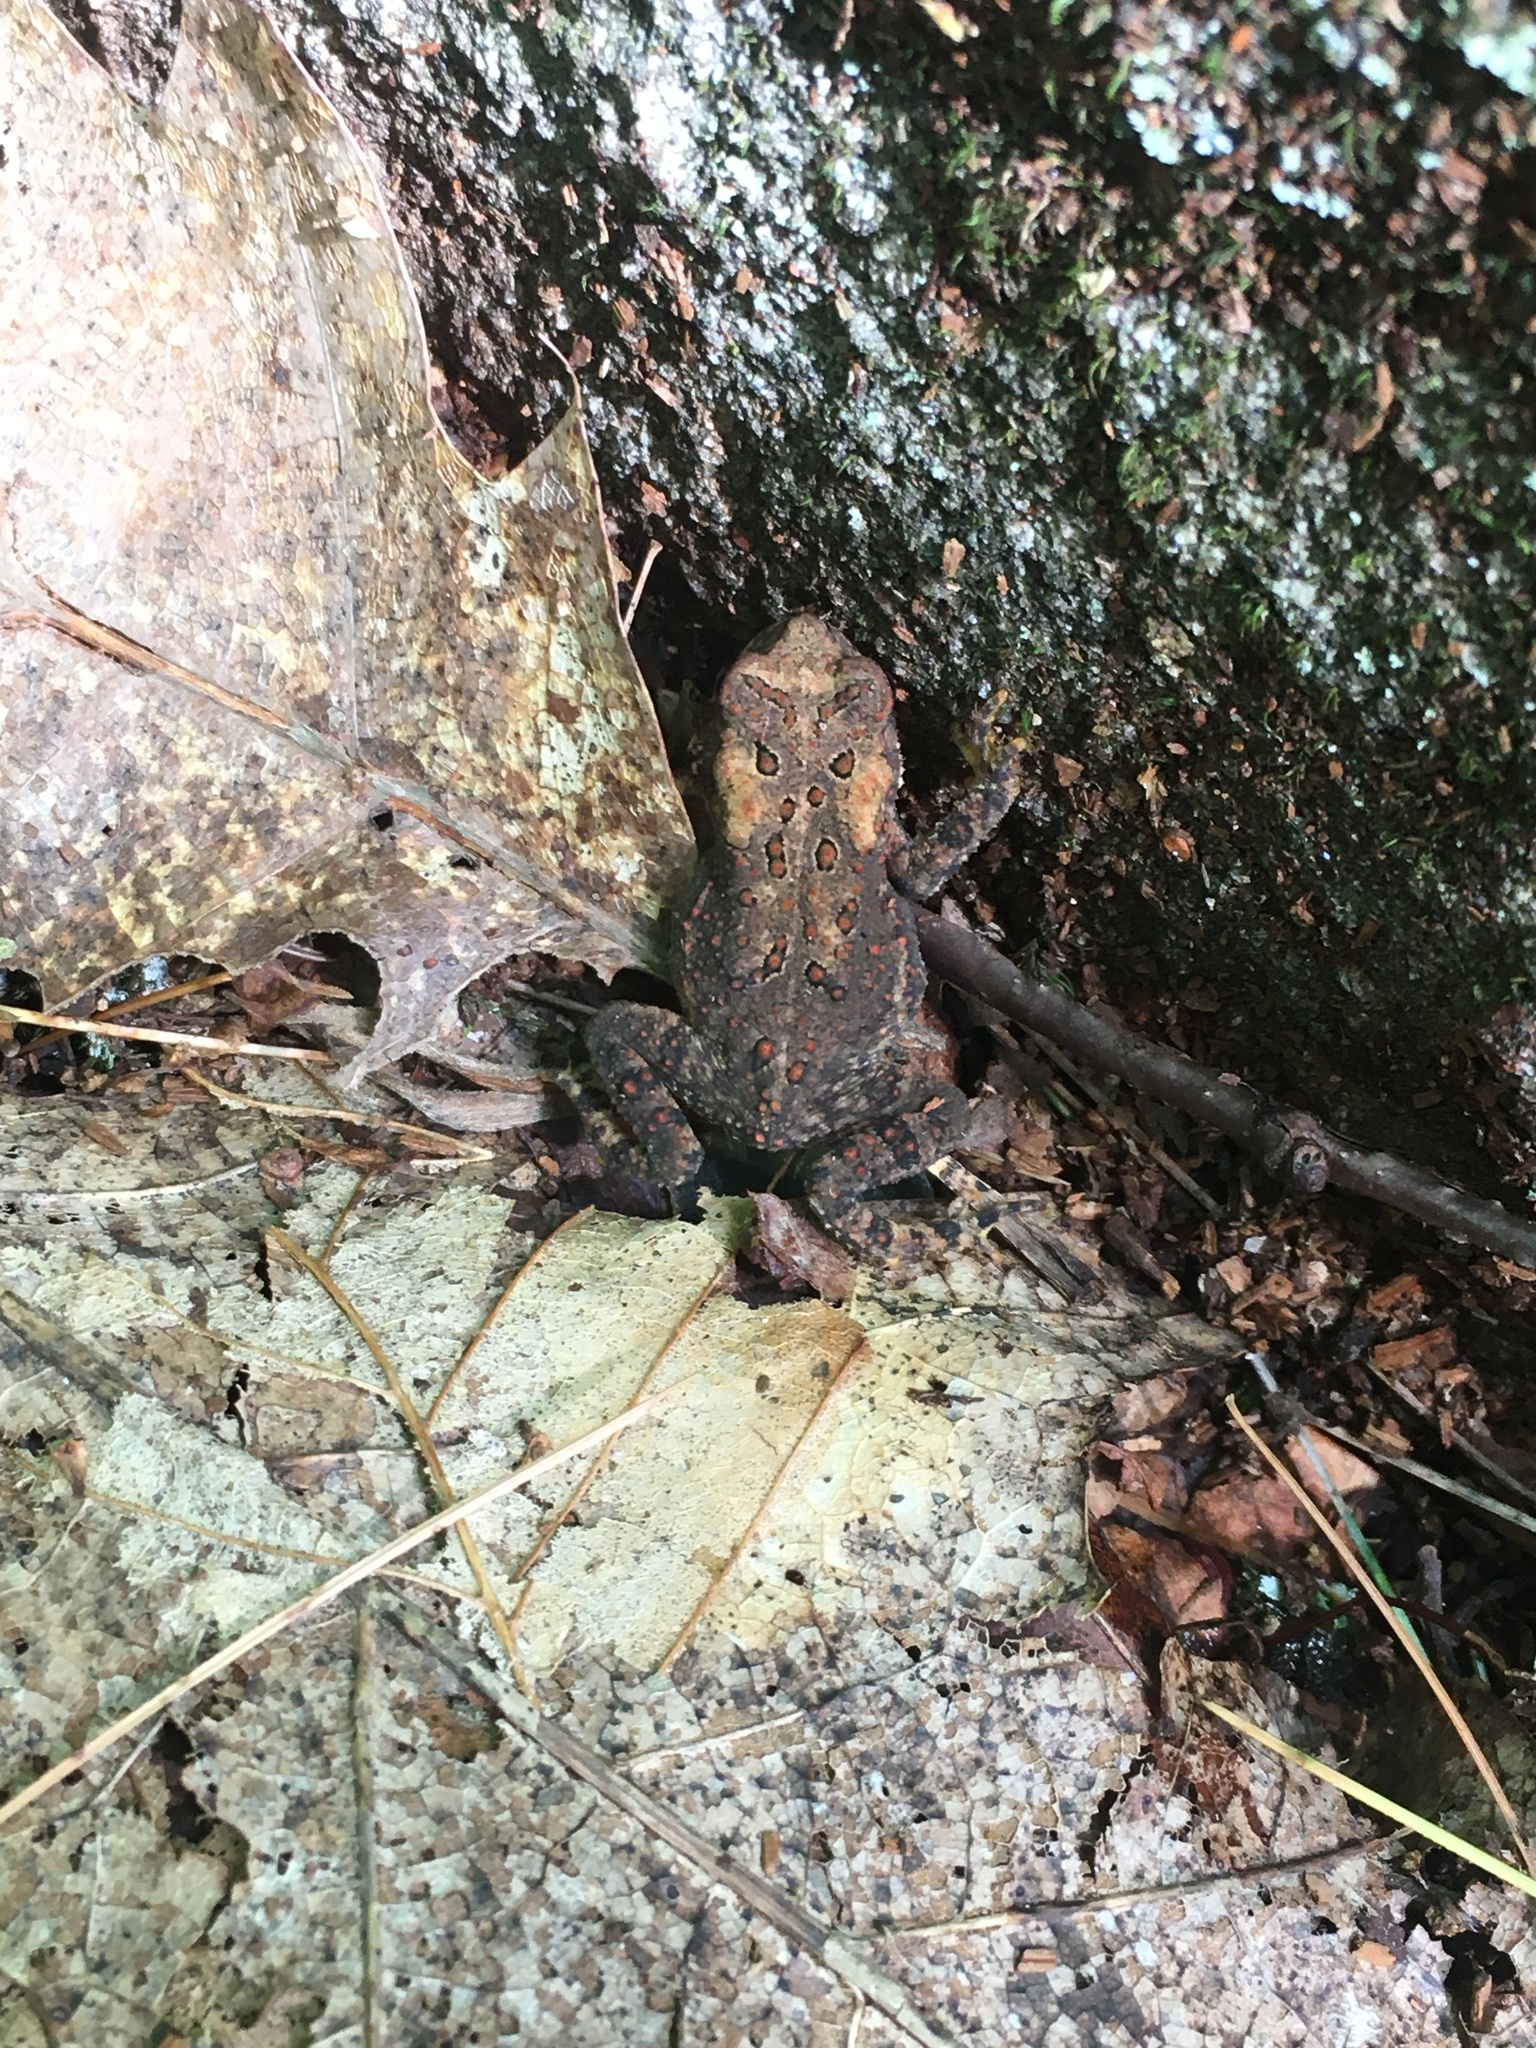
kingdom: Animalia
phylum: Chordata
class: Amphibia
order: Anura
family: Bufonidae
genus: Anaxyrus
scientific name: Anaxyrus americanus
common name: American toad
